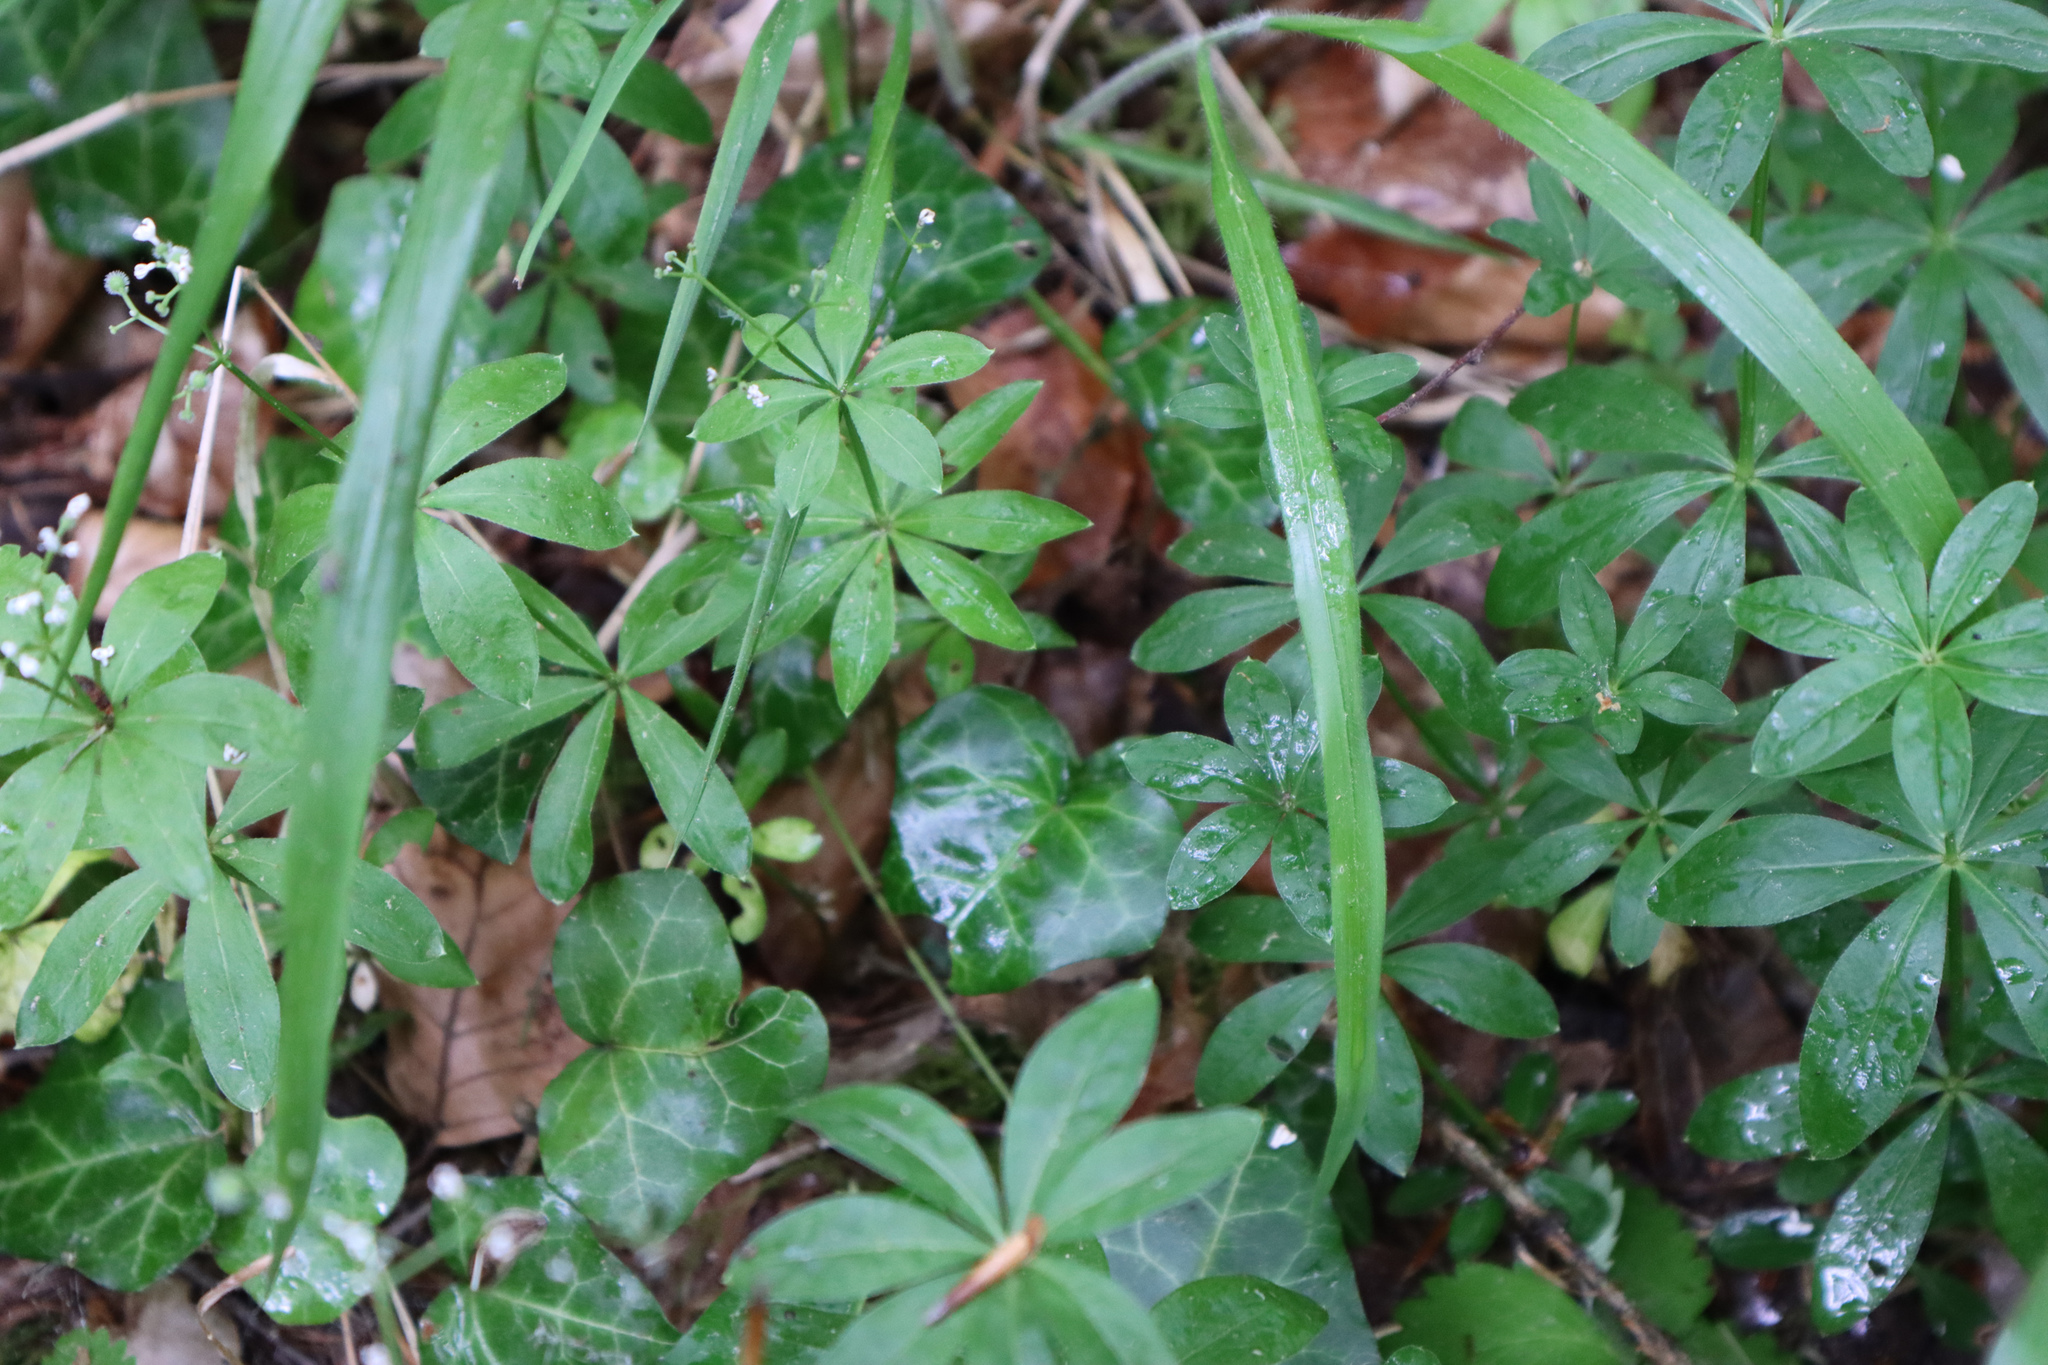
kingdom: Plantae
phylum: Tracheophyta
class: Magnoliopsida
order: Gentianales
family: Rubiaceae
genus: Galium
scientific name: Galium odoratum
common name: Sweet woodruff
